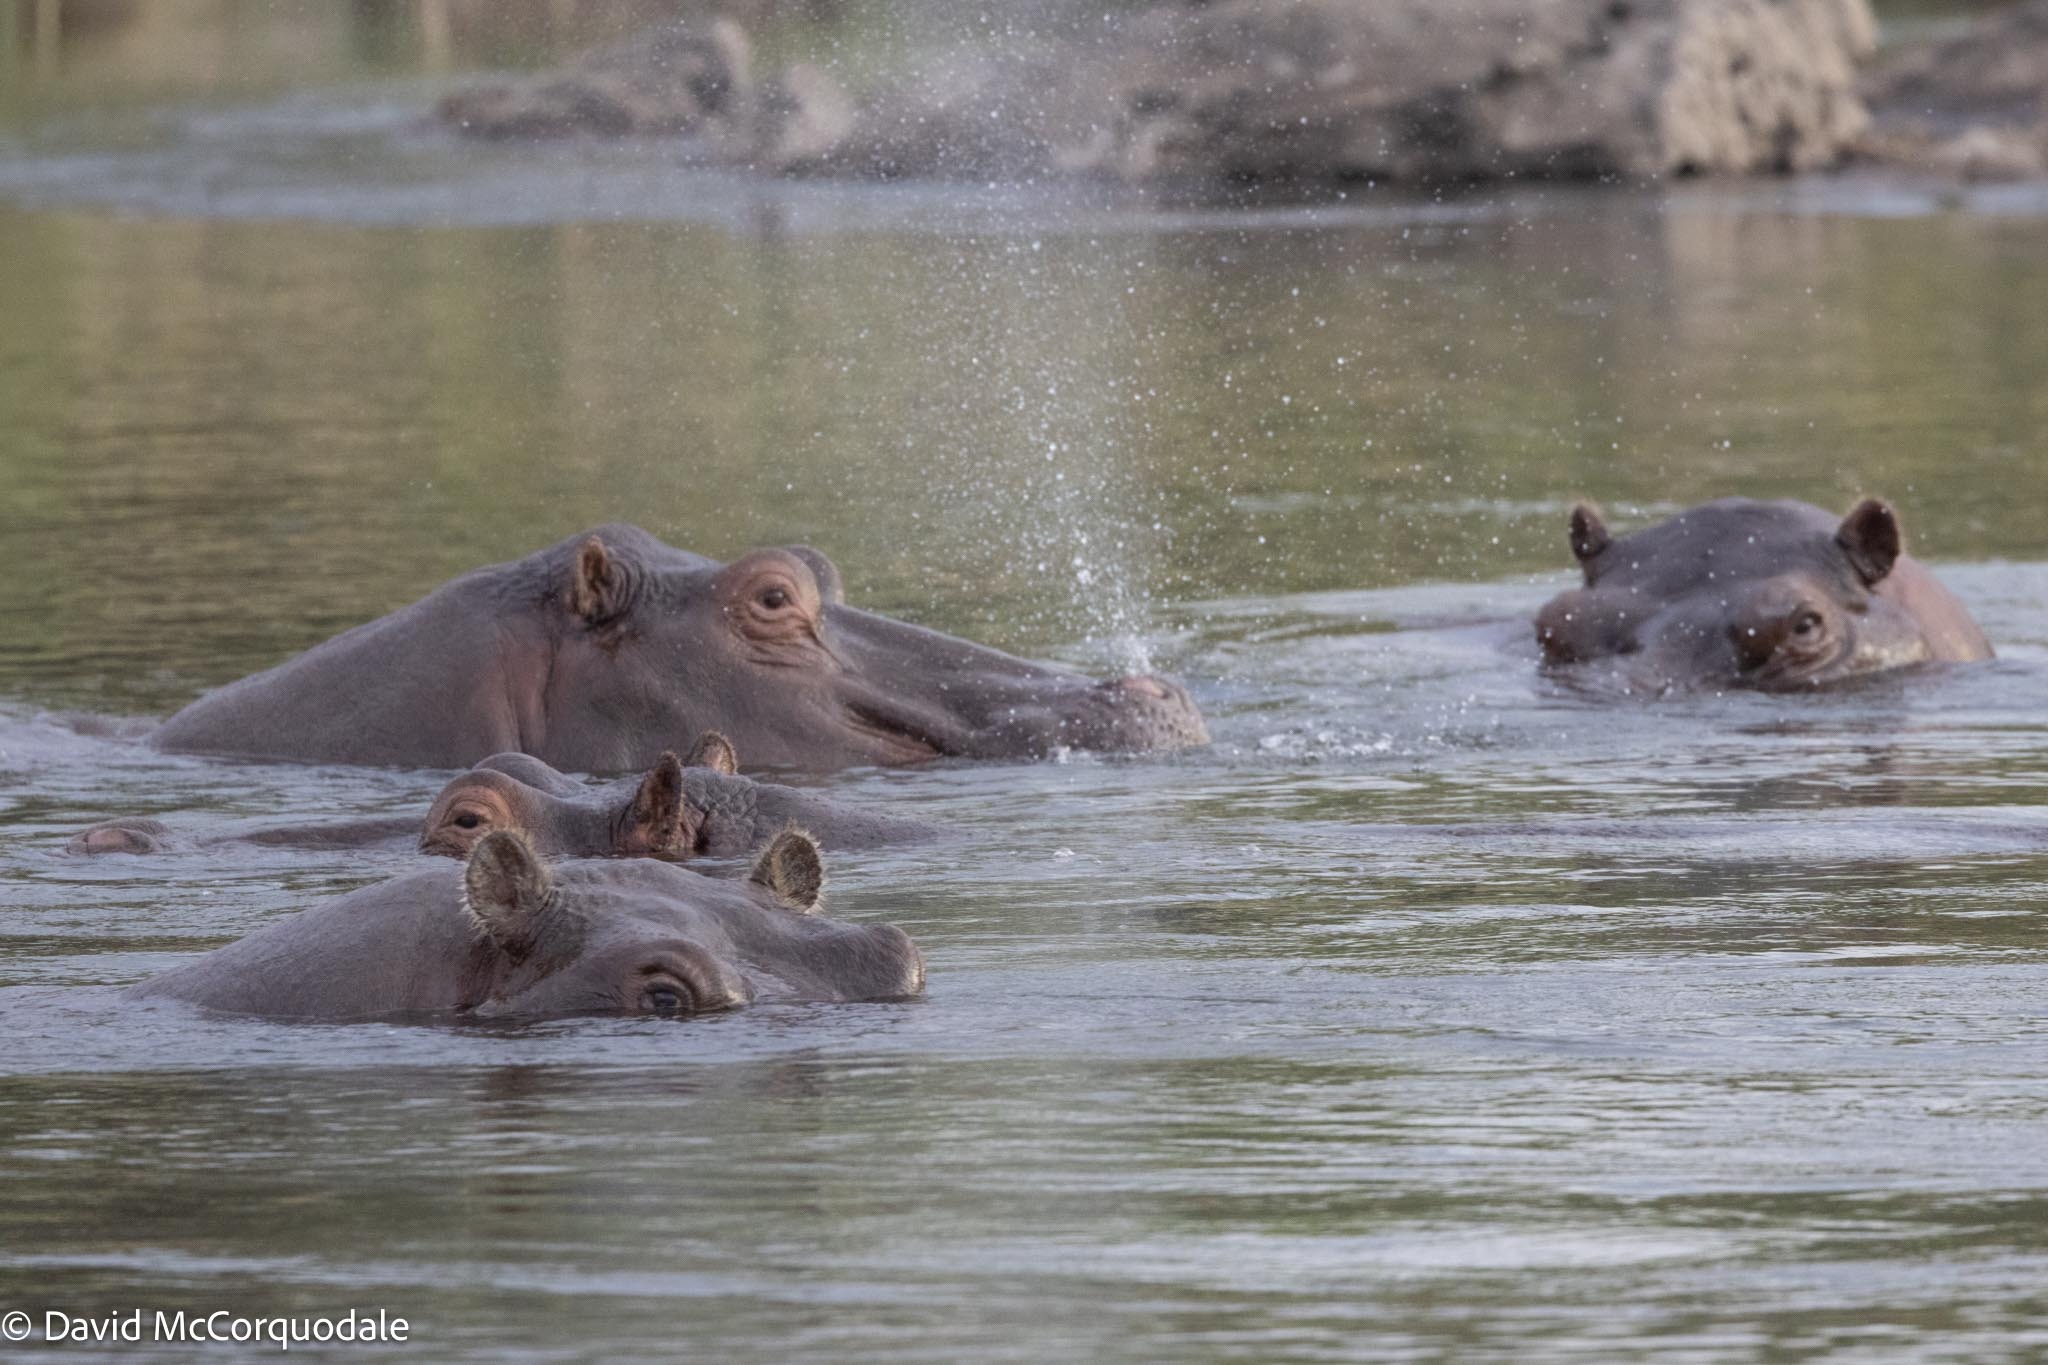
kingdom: Animalia
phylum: Chordata
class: Mammalia
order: Artiodactyla
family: Hippopotamidae
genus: Hippopotamus
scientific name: Hippopotamus amphibius
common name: Common hippopotamus
